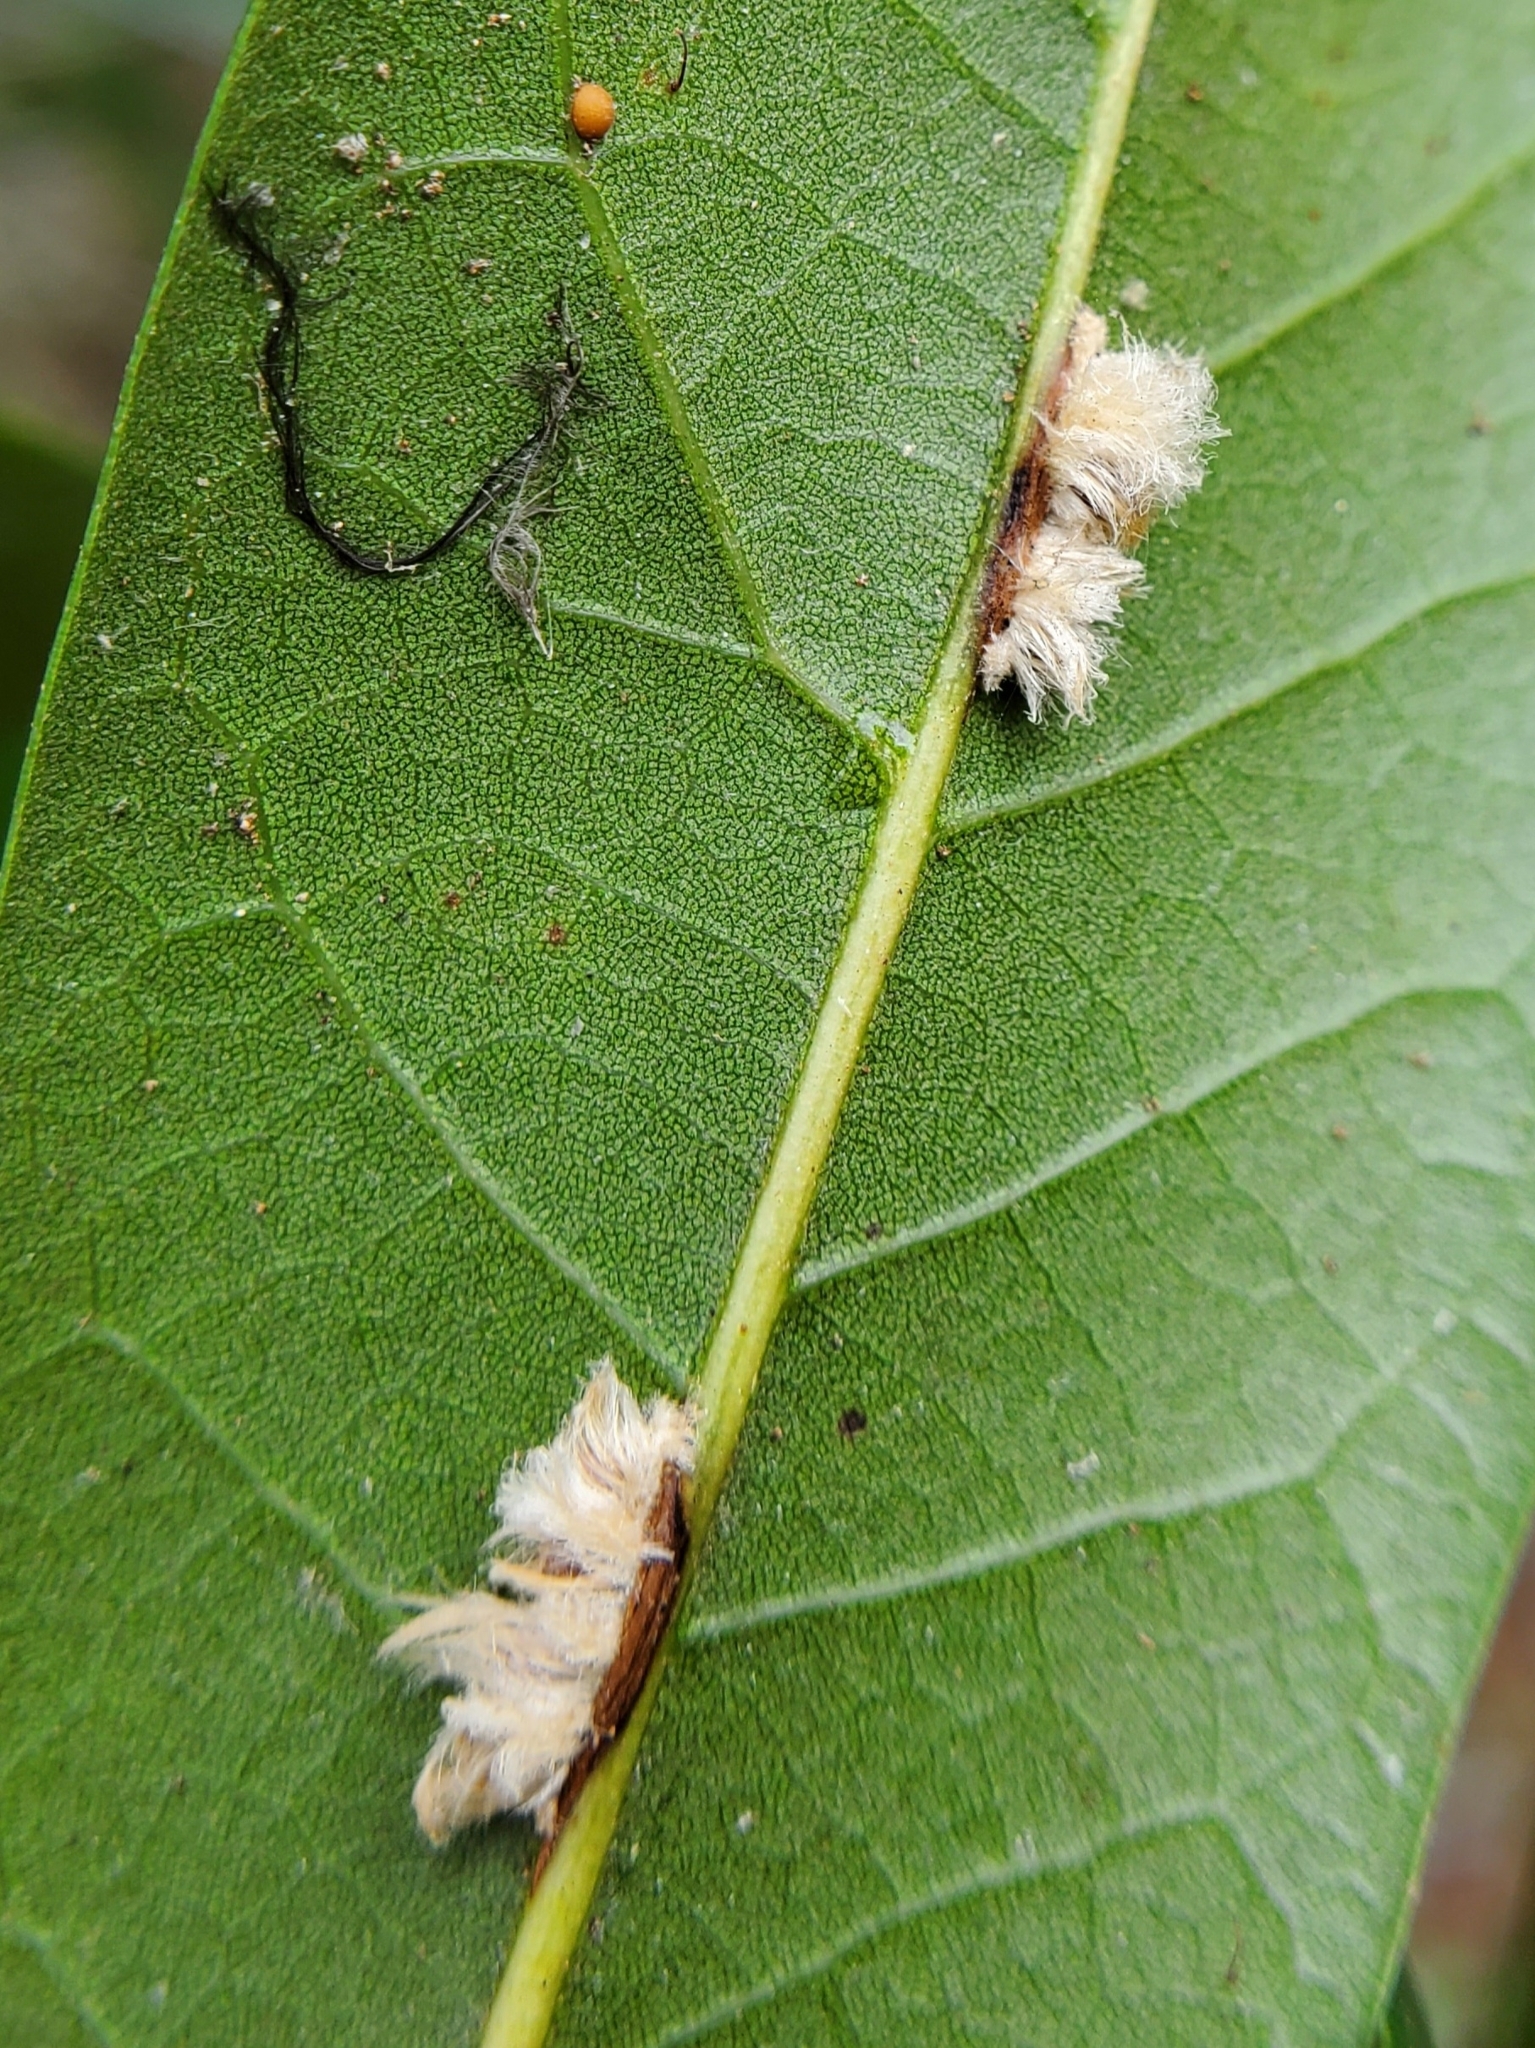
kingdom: Animalia
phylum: Arthropoda
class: Insecta
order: Hymenoptera
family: Cynipidae
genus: Andricus
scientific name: Andricus Druon quercuslanigerum
